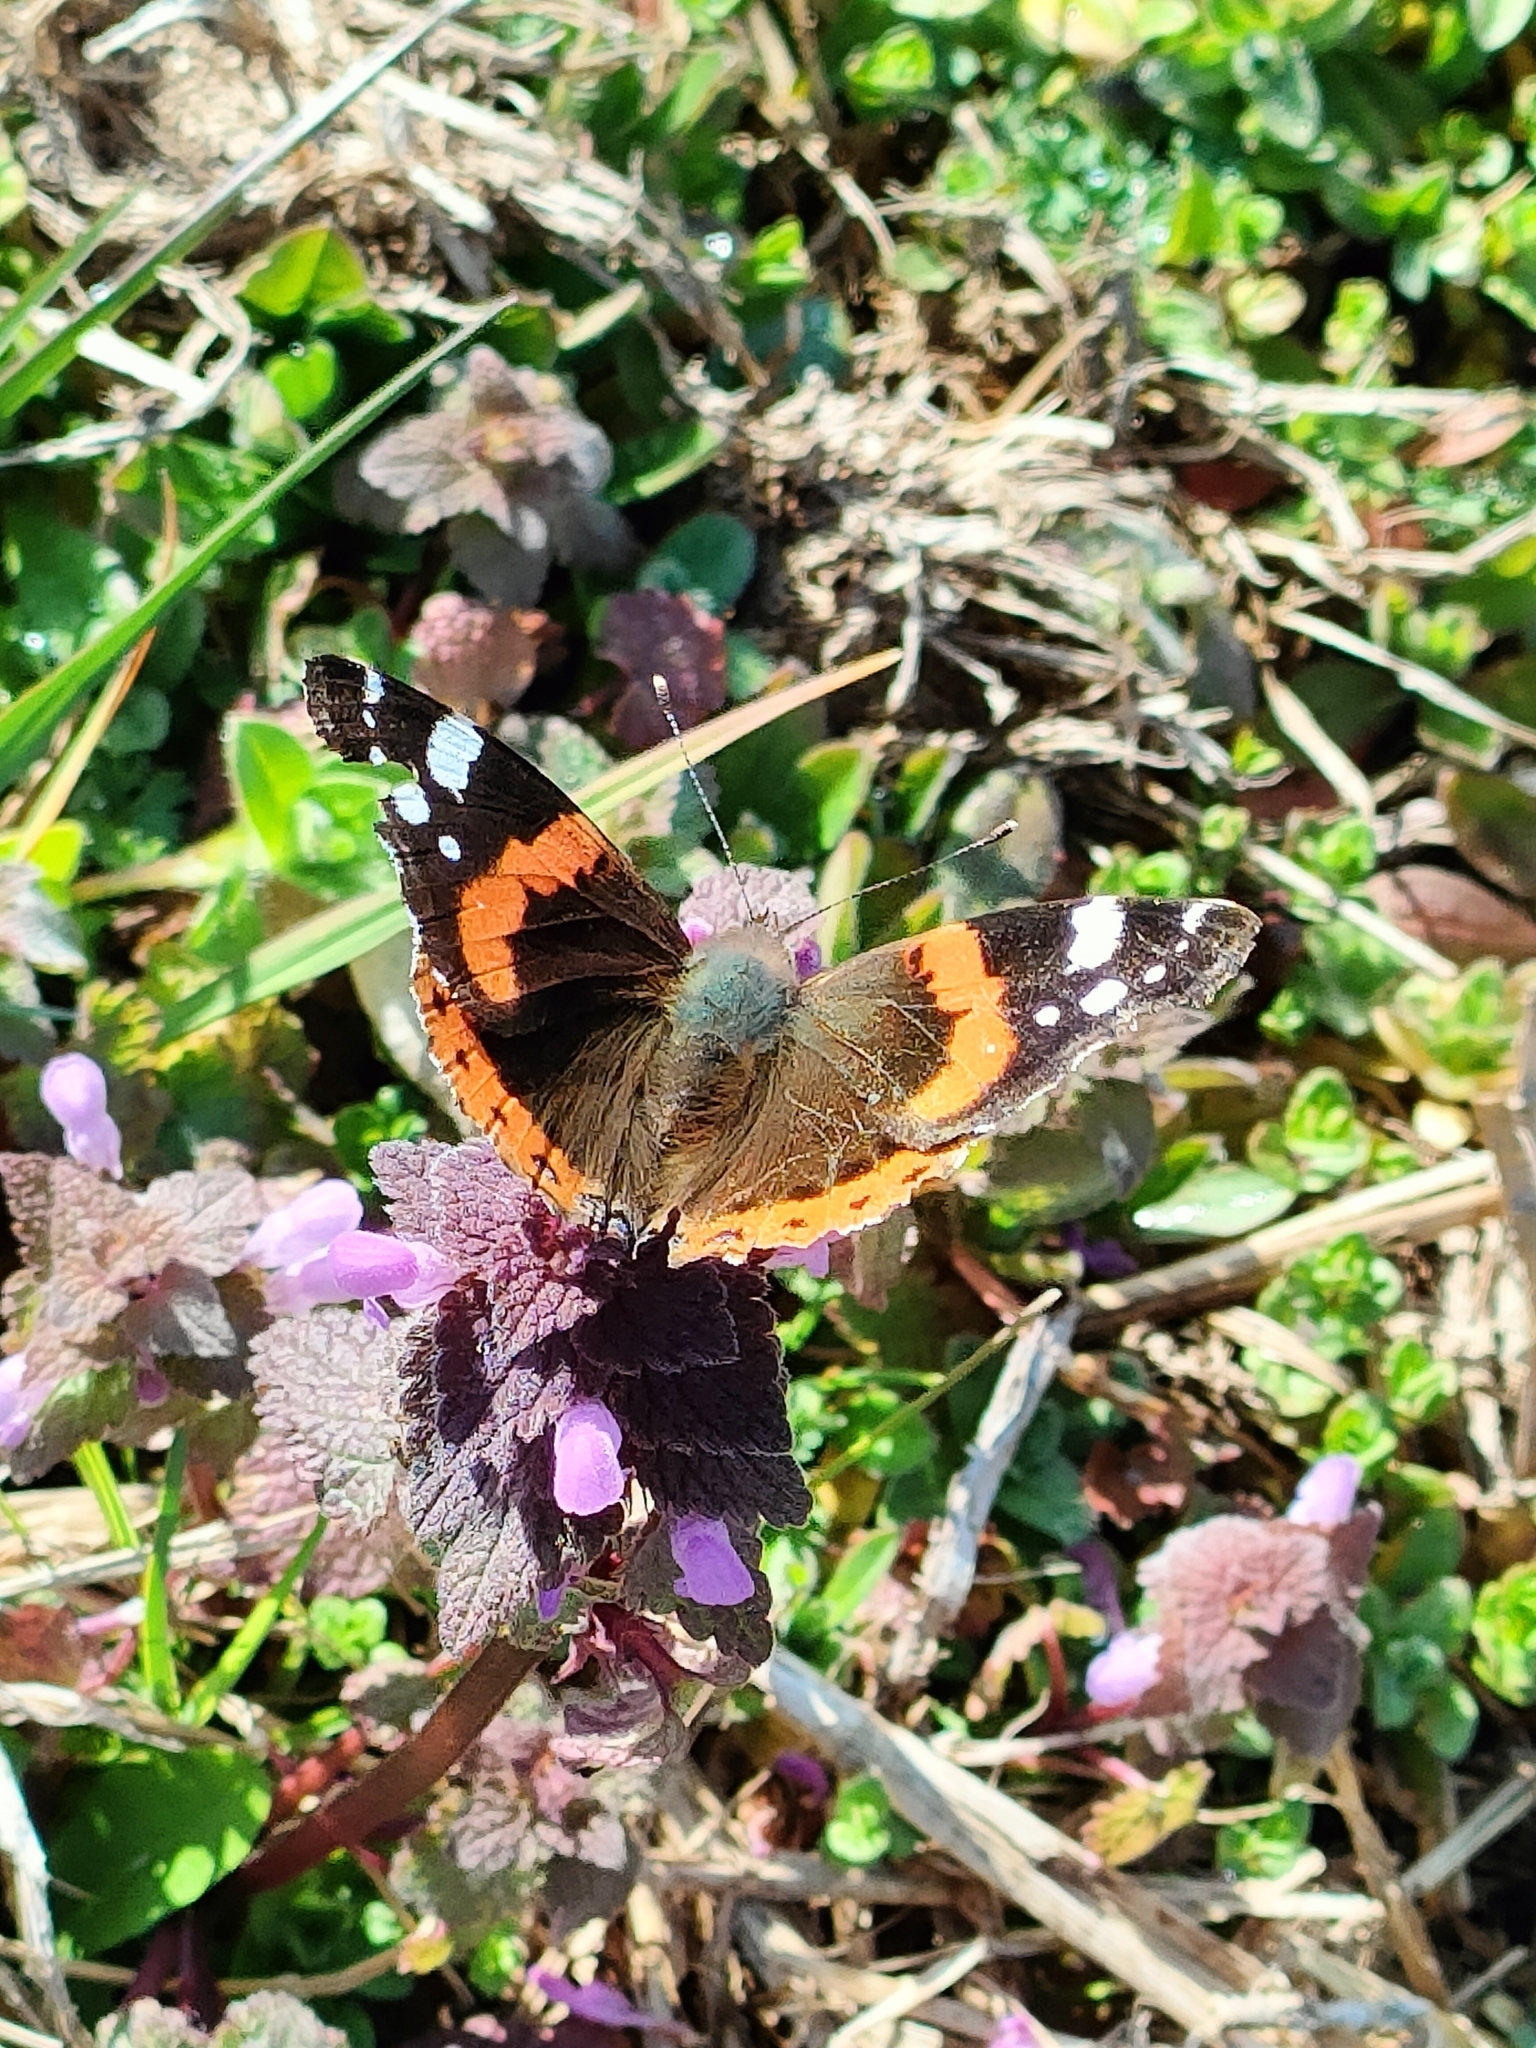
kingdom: Animalia
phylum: Arthropoda
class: Insecta
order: Lepidoptera
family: Nymphalidae
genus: Vanessa
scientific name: Vanessa atalanta
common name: Red admiral
